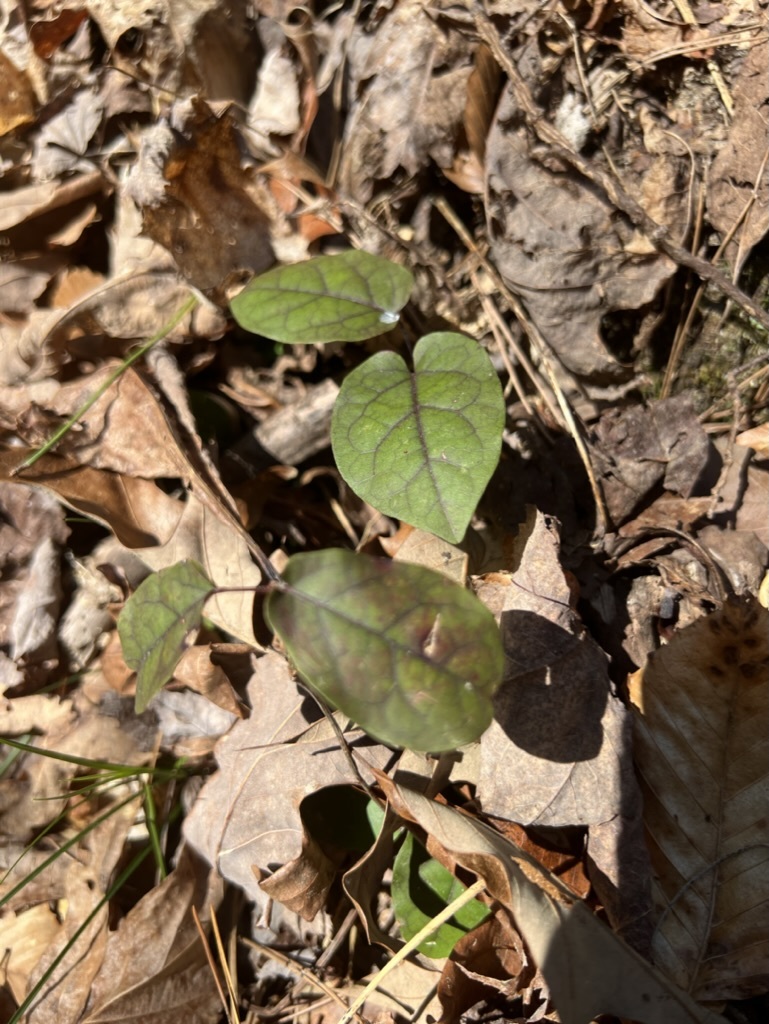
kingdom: Plantae
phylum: Tracheophyta
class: Magnoliopsida
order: Lamiales
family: Bignoniaceae
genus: Bignonia
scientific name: Bignonia capreolata
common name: Crossvine
